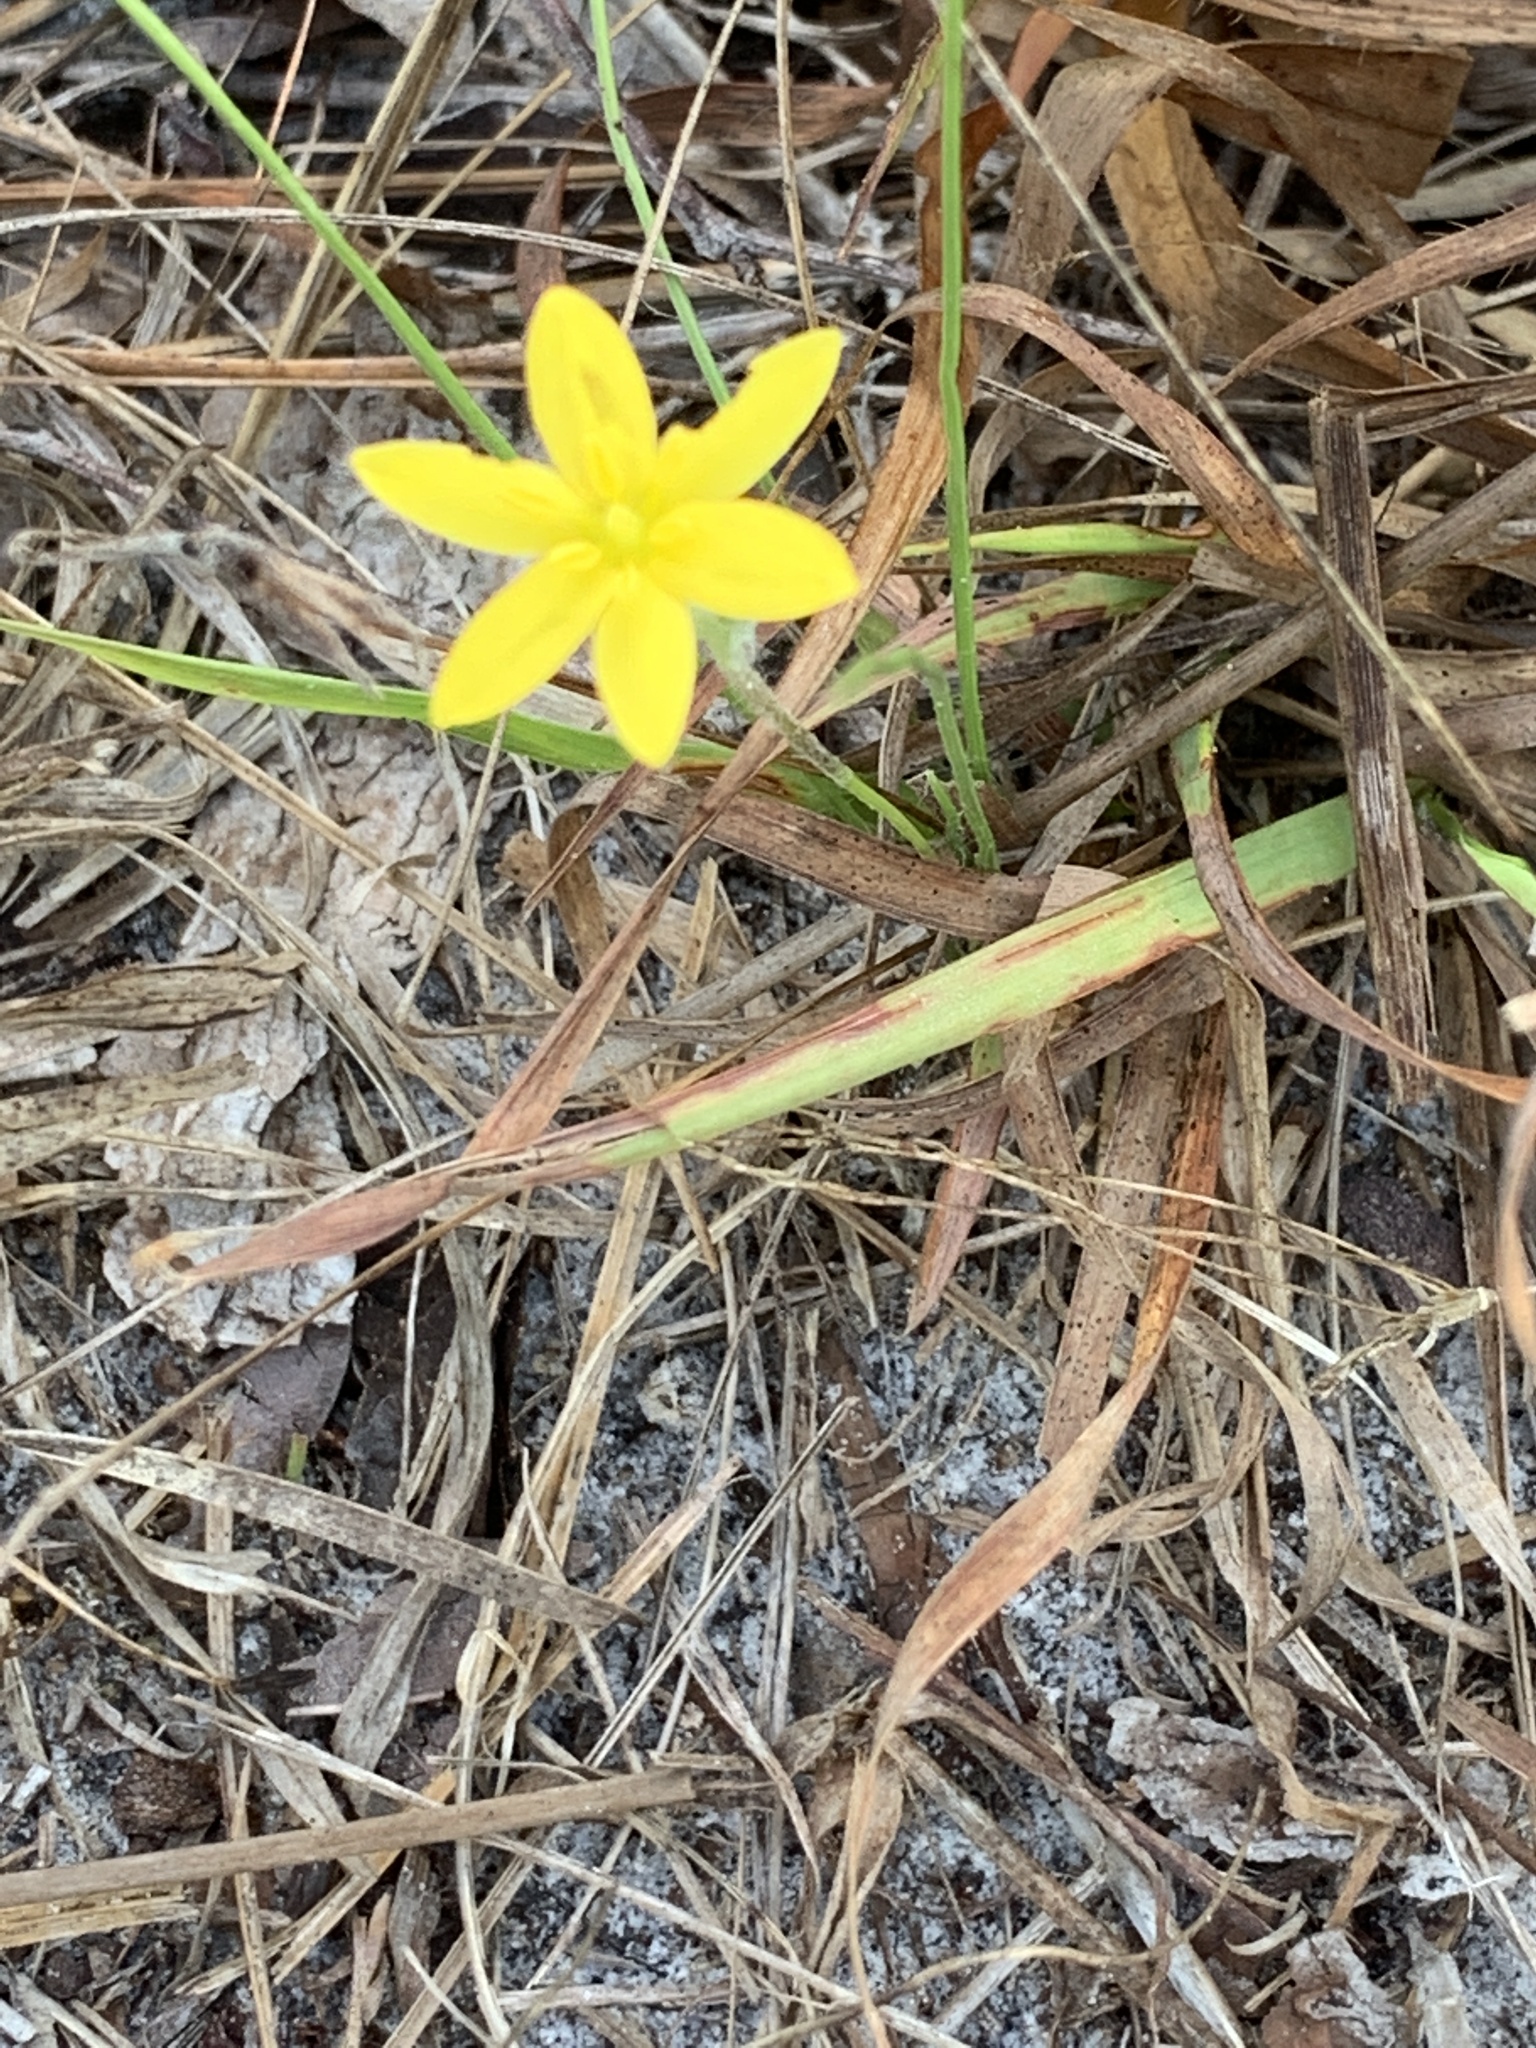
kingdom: Plantae
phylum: Tracheophyta
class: Liliopsida
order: Asparagales
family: Hypoxidaceae
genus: Hypoxis
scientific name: Hypoxis juncea
